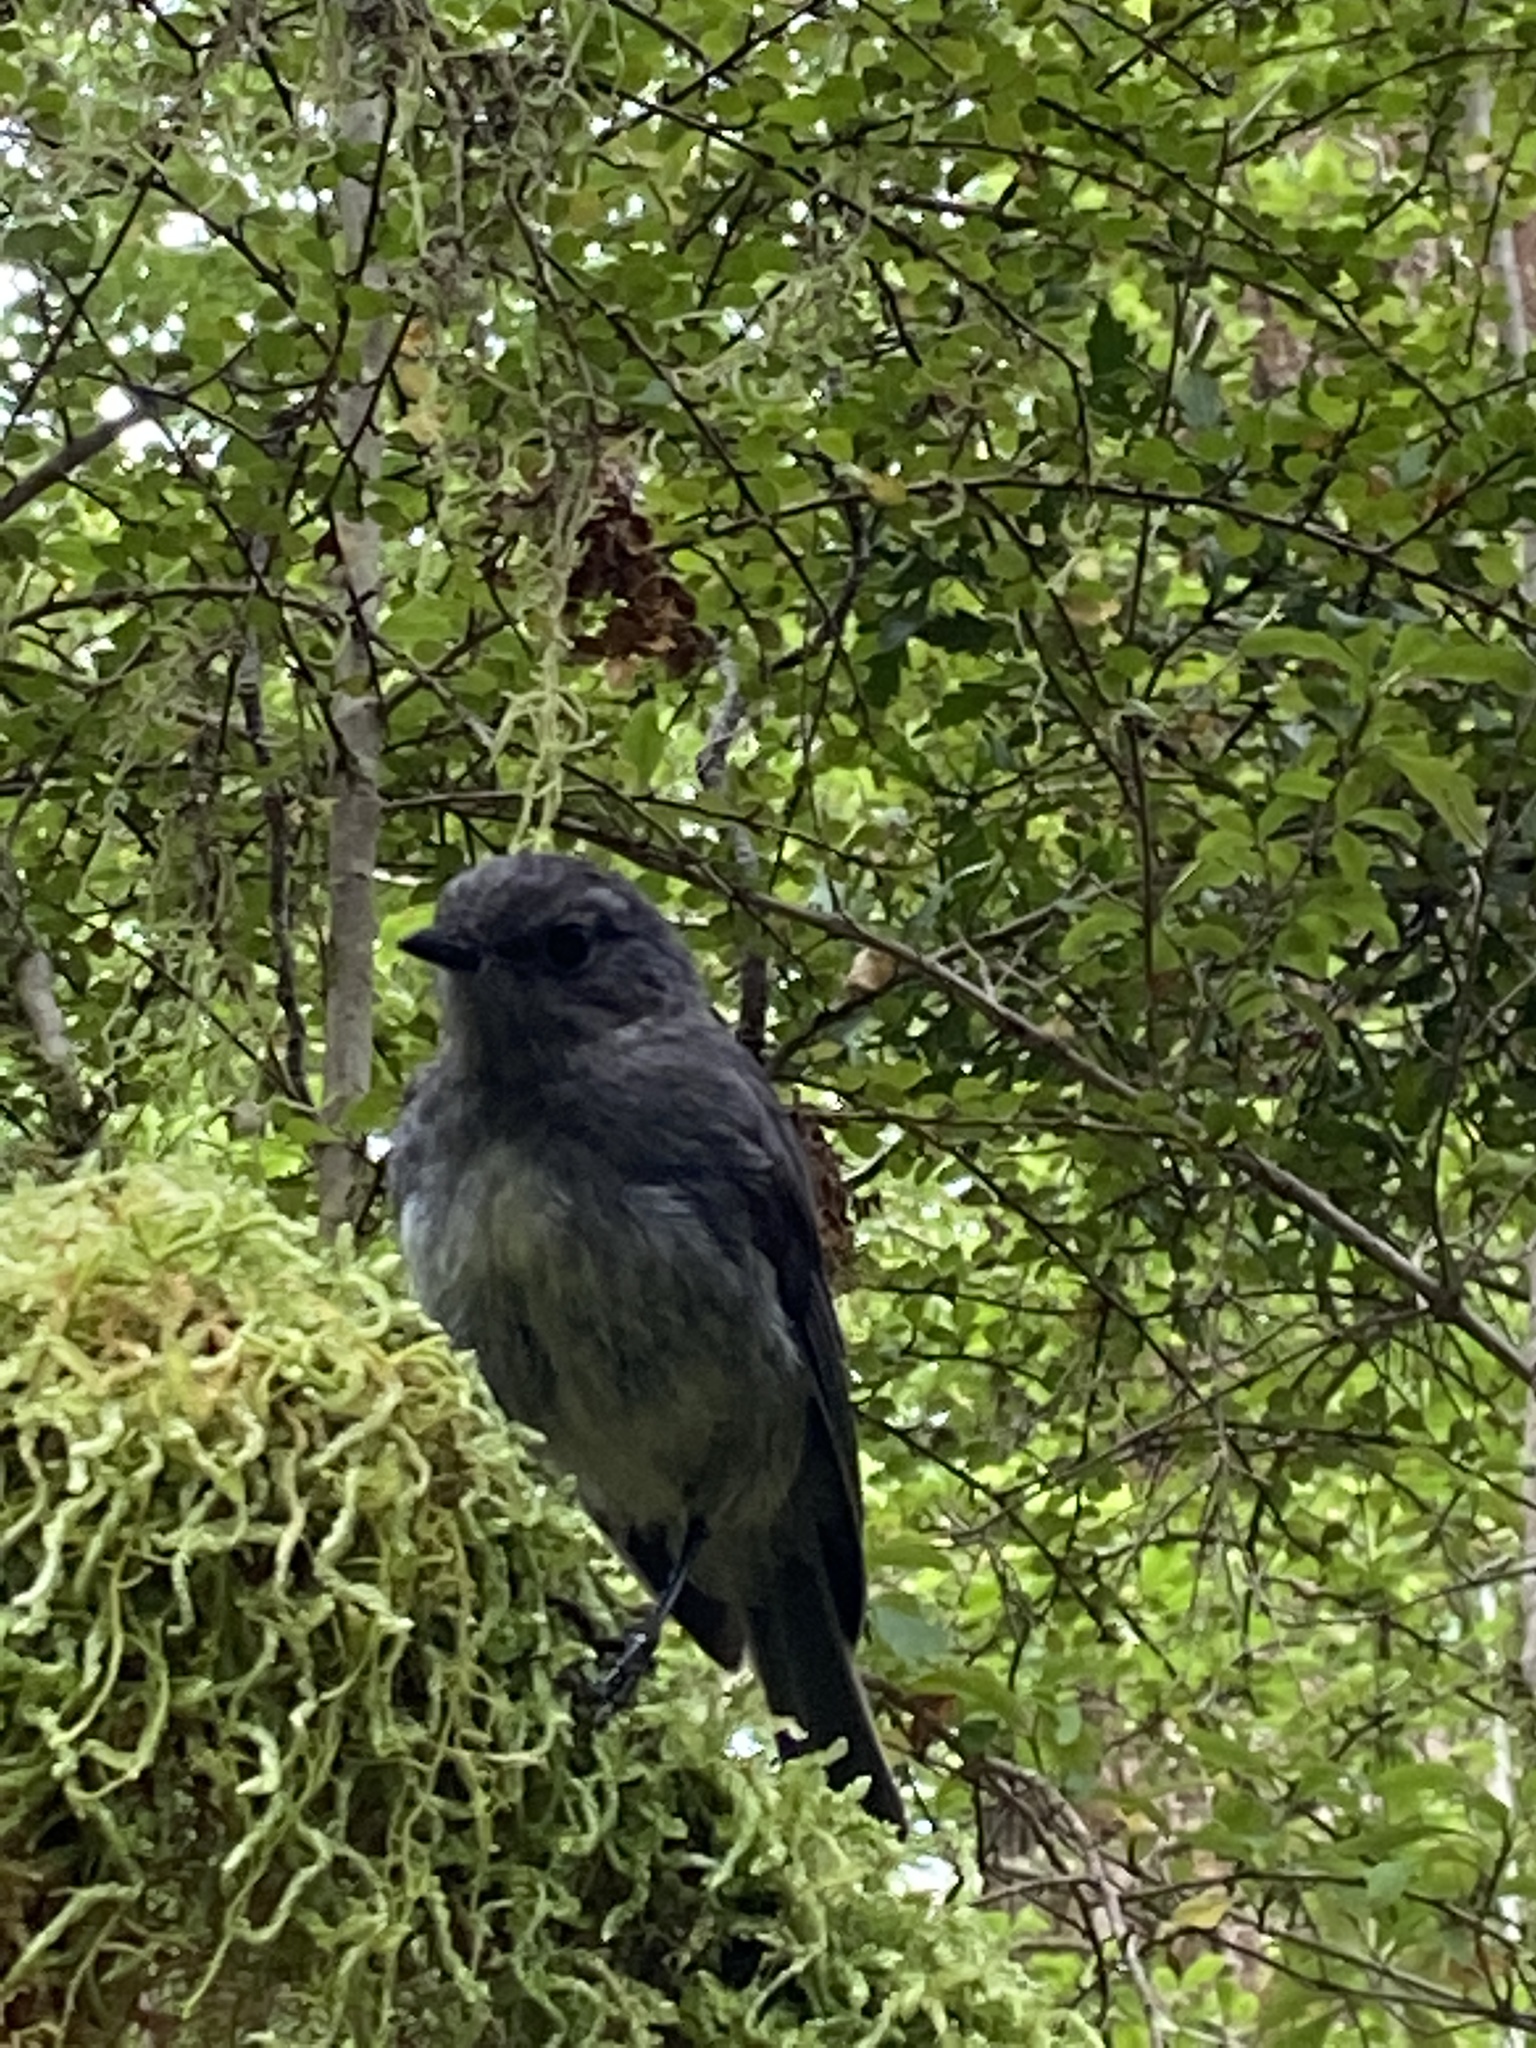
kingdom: Animalia
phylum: Chordata
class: Aves
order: Passeriformes
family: Petroicidae
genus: Petroica
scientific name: Petroica australis
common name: New zealand robin
